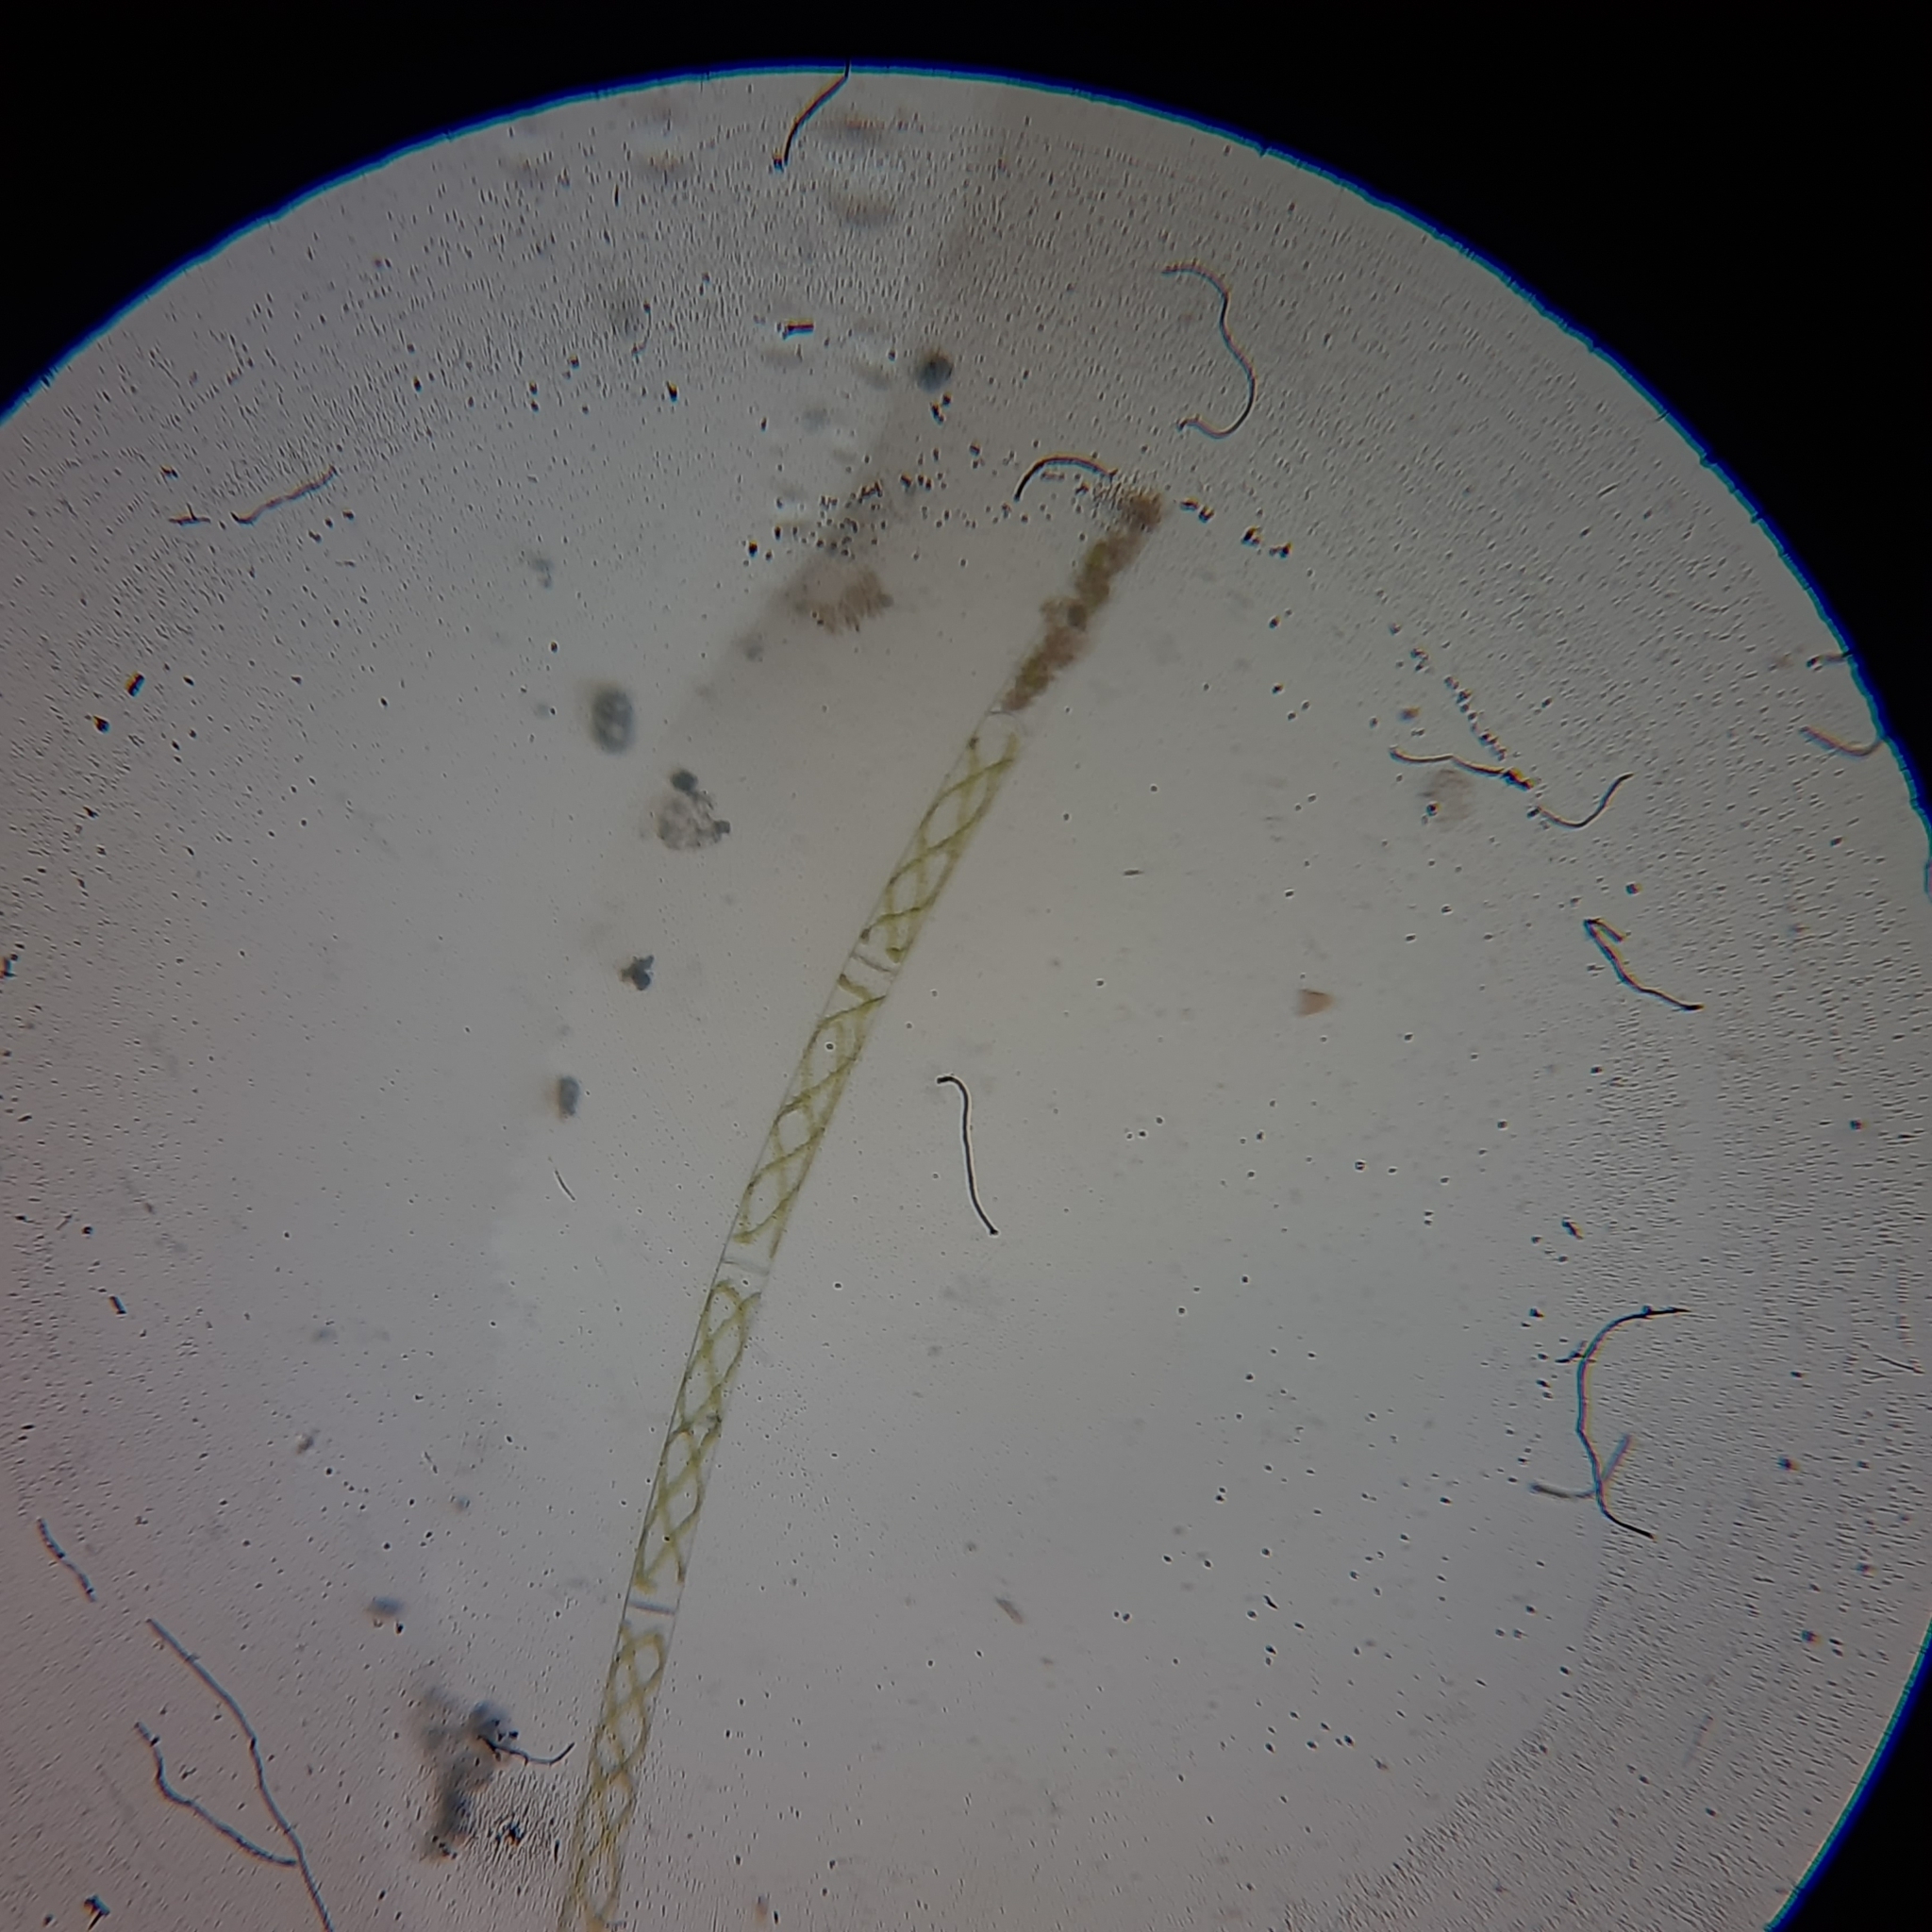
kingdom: Plantae
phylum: Charophyta
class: Zygnematophyceae
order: Zygnematales
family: Zygnemataceae
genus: Spirogyra
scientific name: Spirogyra
